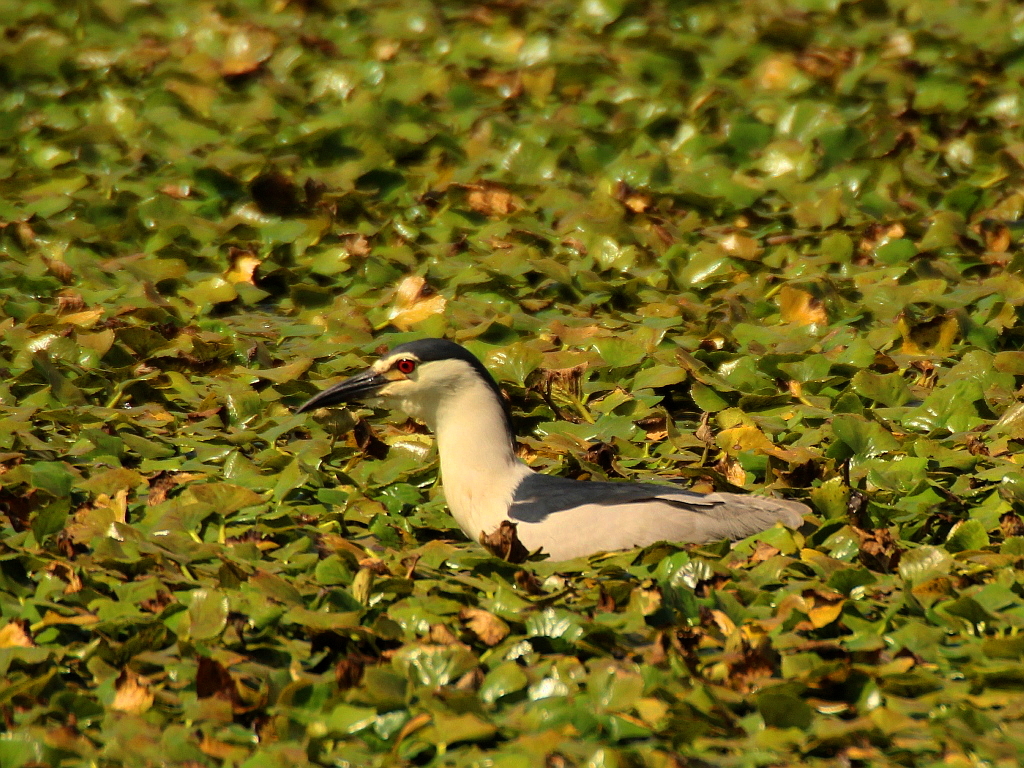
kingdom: Animalia
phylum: Chordata
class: Aves
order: Pelecaniformes
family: Ardeidae
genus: Nycticorax
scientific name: Nycticorax nycticorax
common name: Black-crowned night heron
